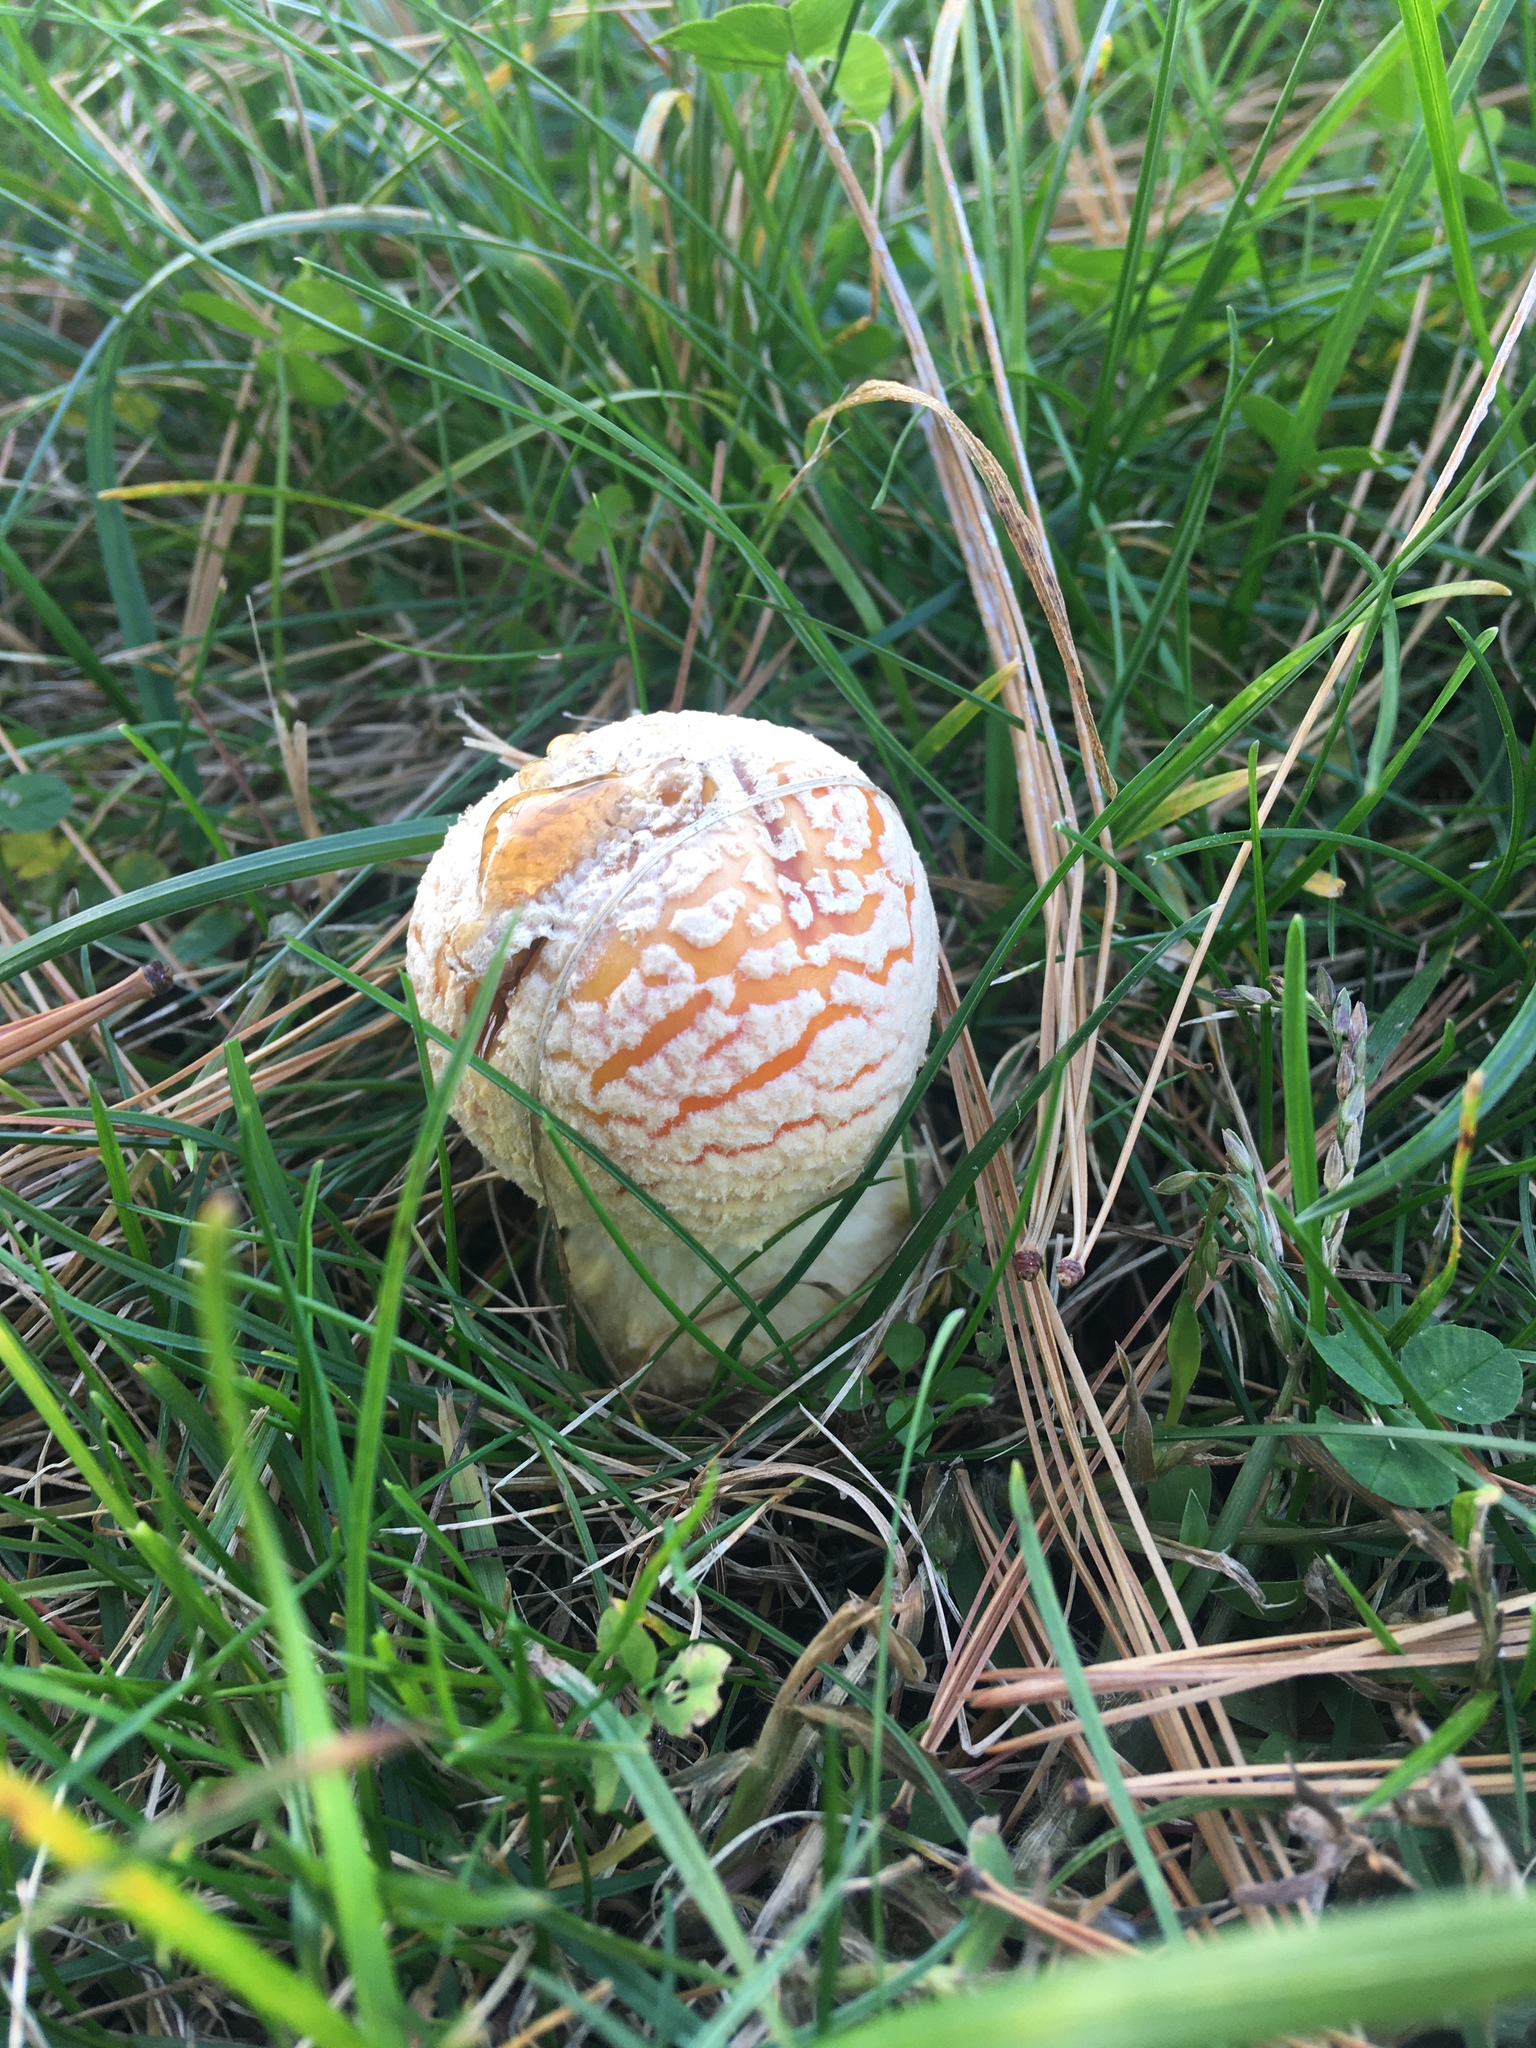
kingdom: Fungi
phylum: Basidiomycota
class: Agaricomycetes
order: Agaricales
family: Amanitaceae
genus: Amanita
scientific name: Amanita muscaria
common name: Fly agaric
